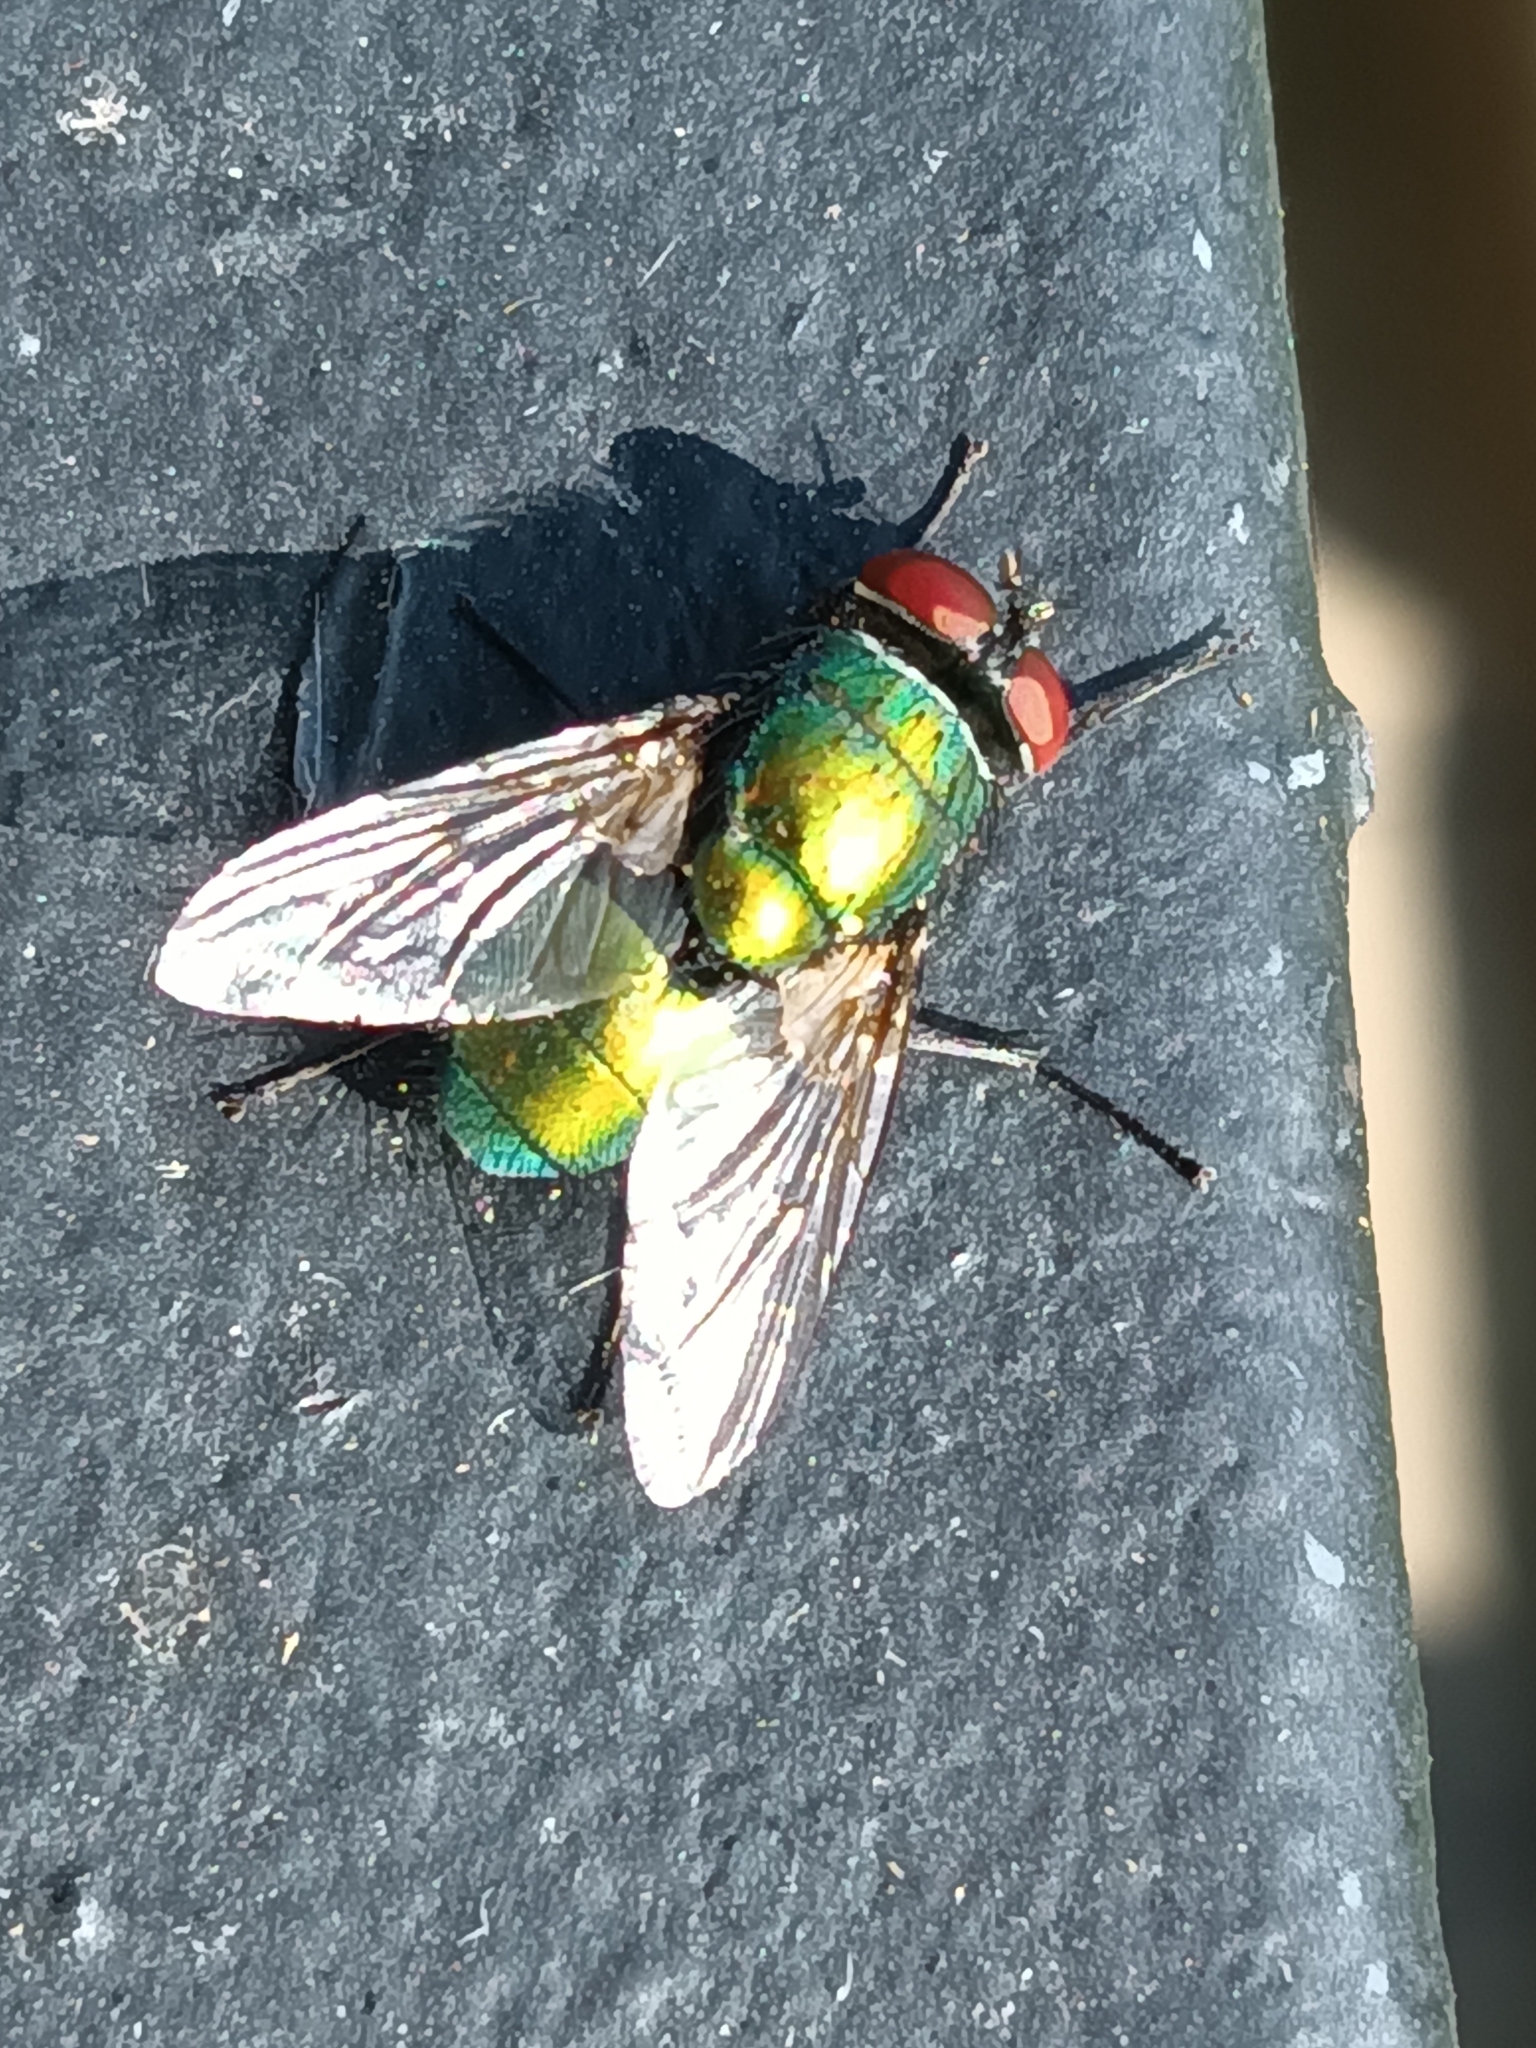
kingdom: Animalia
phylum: Arthropoda
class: Insecta
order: Diptera
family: Calliphoridae
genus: Lucilia
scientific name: Lucilia sericata
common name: Blow fly
